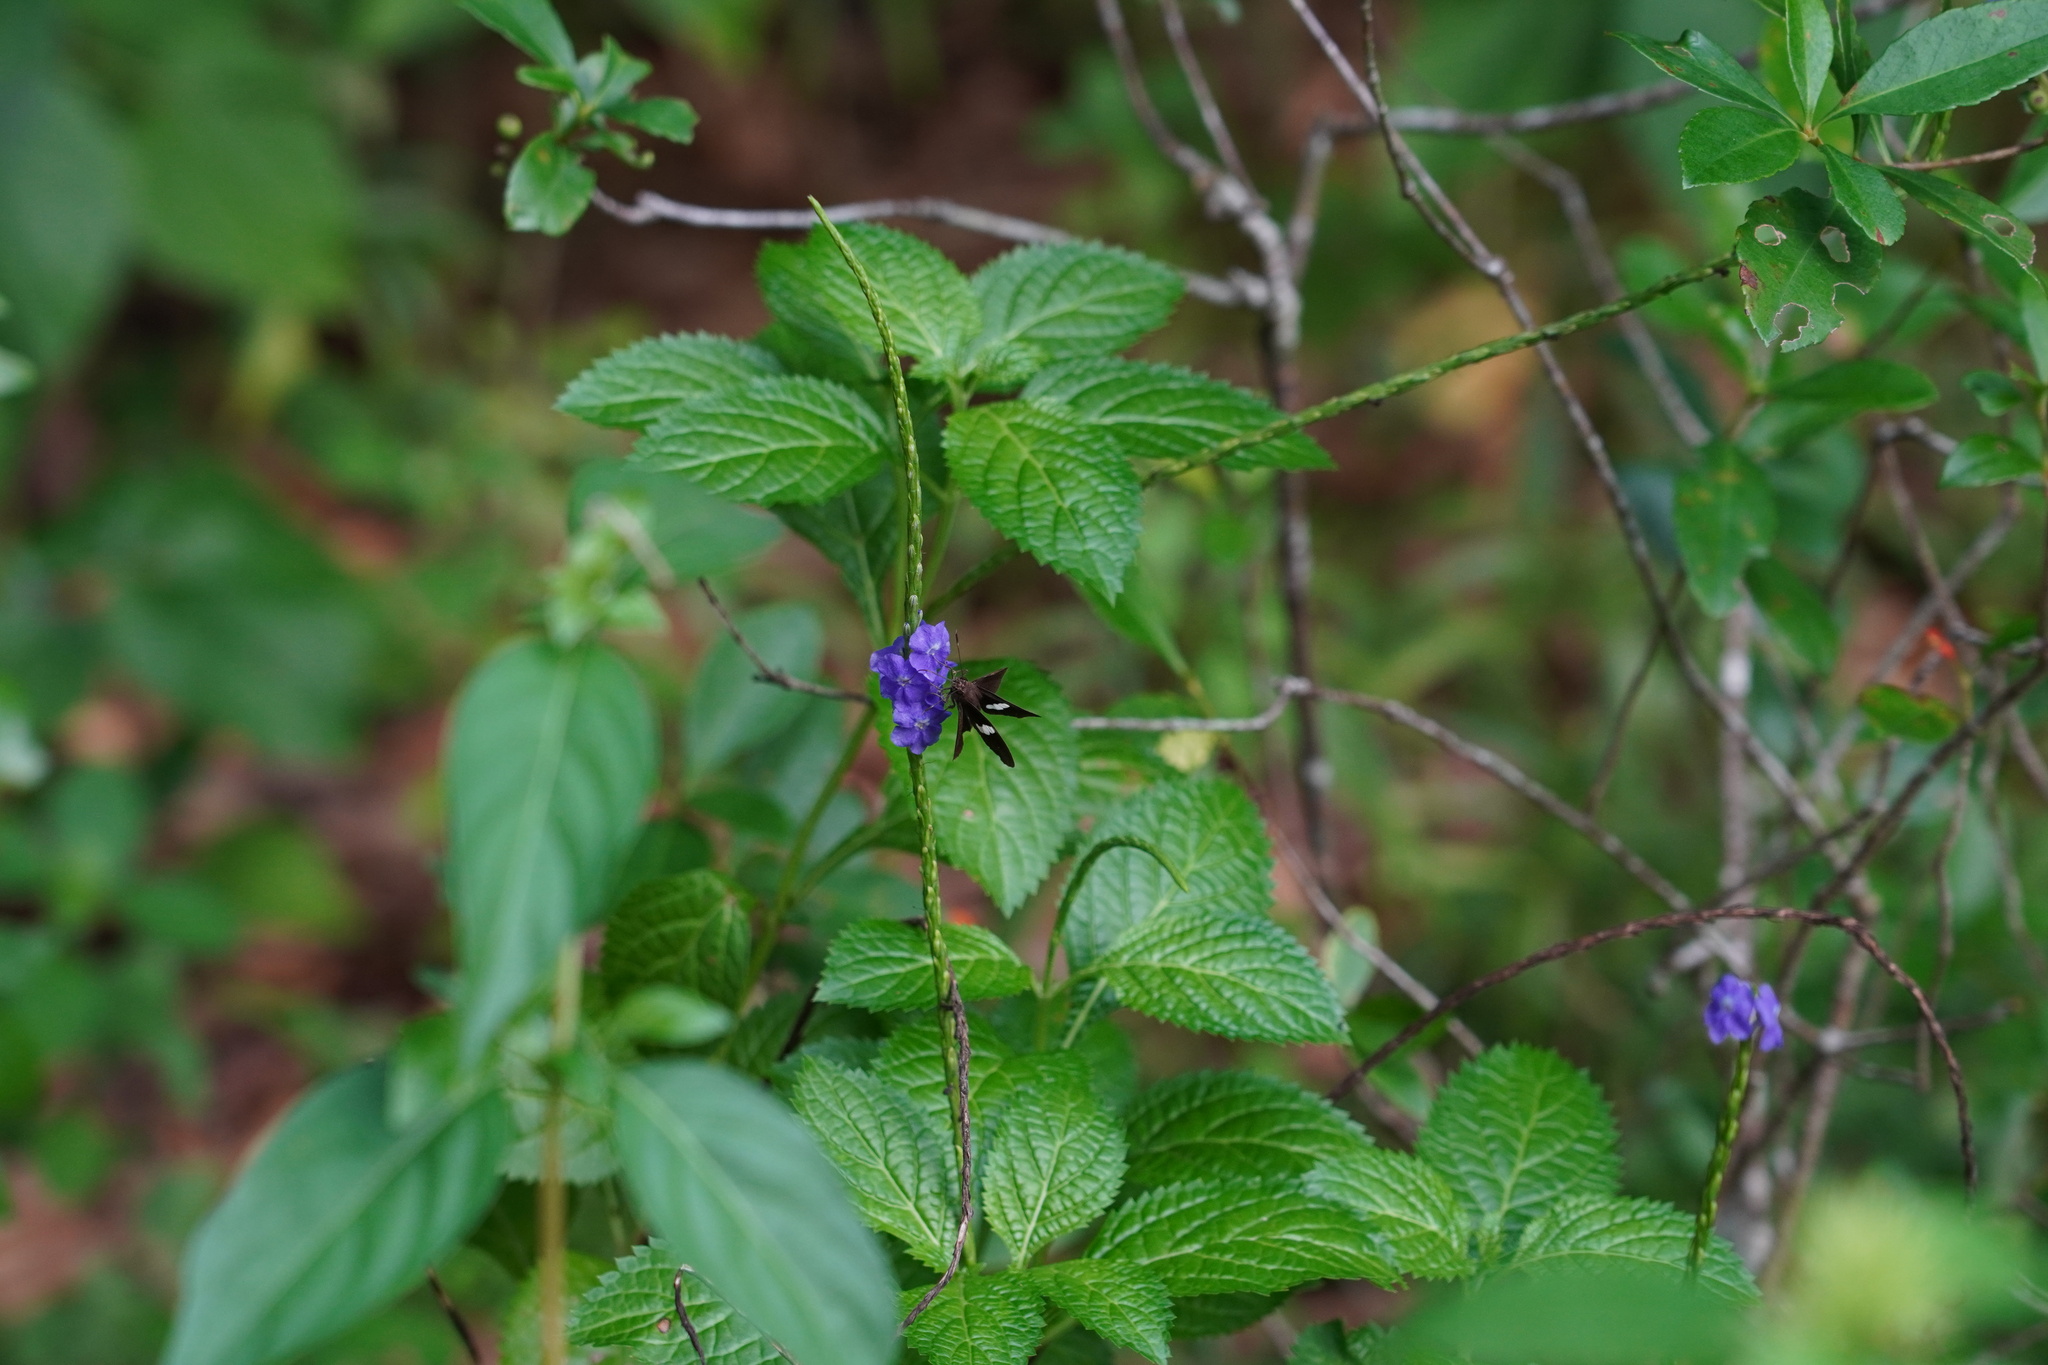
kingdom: Animalia
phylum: Arthropoda
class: Insecta
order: Lepidoptera
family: Hesperiidae
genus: Notocrypta
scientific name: Notocrypta paralysos
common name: Common banded demon
